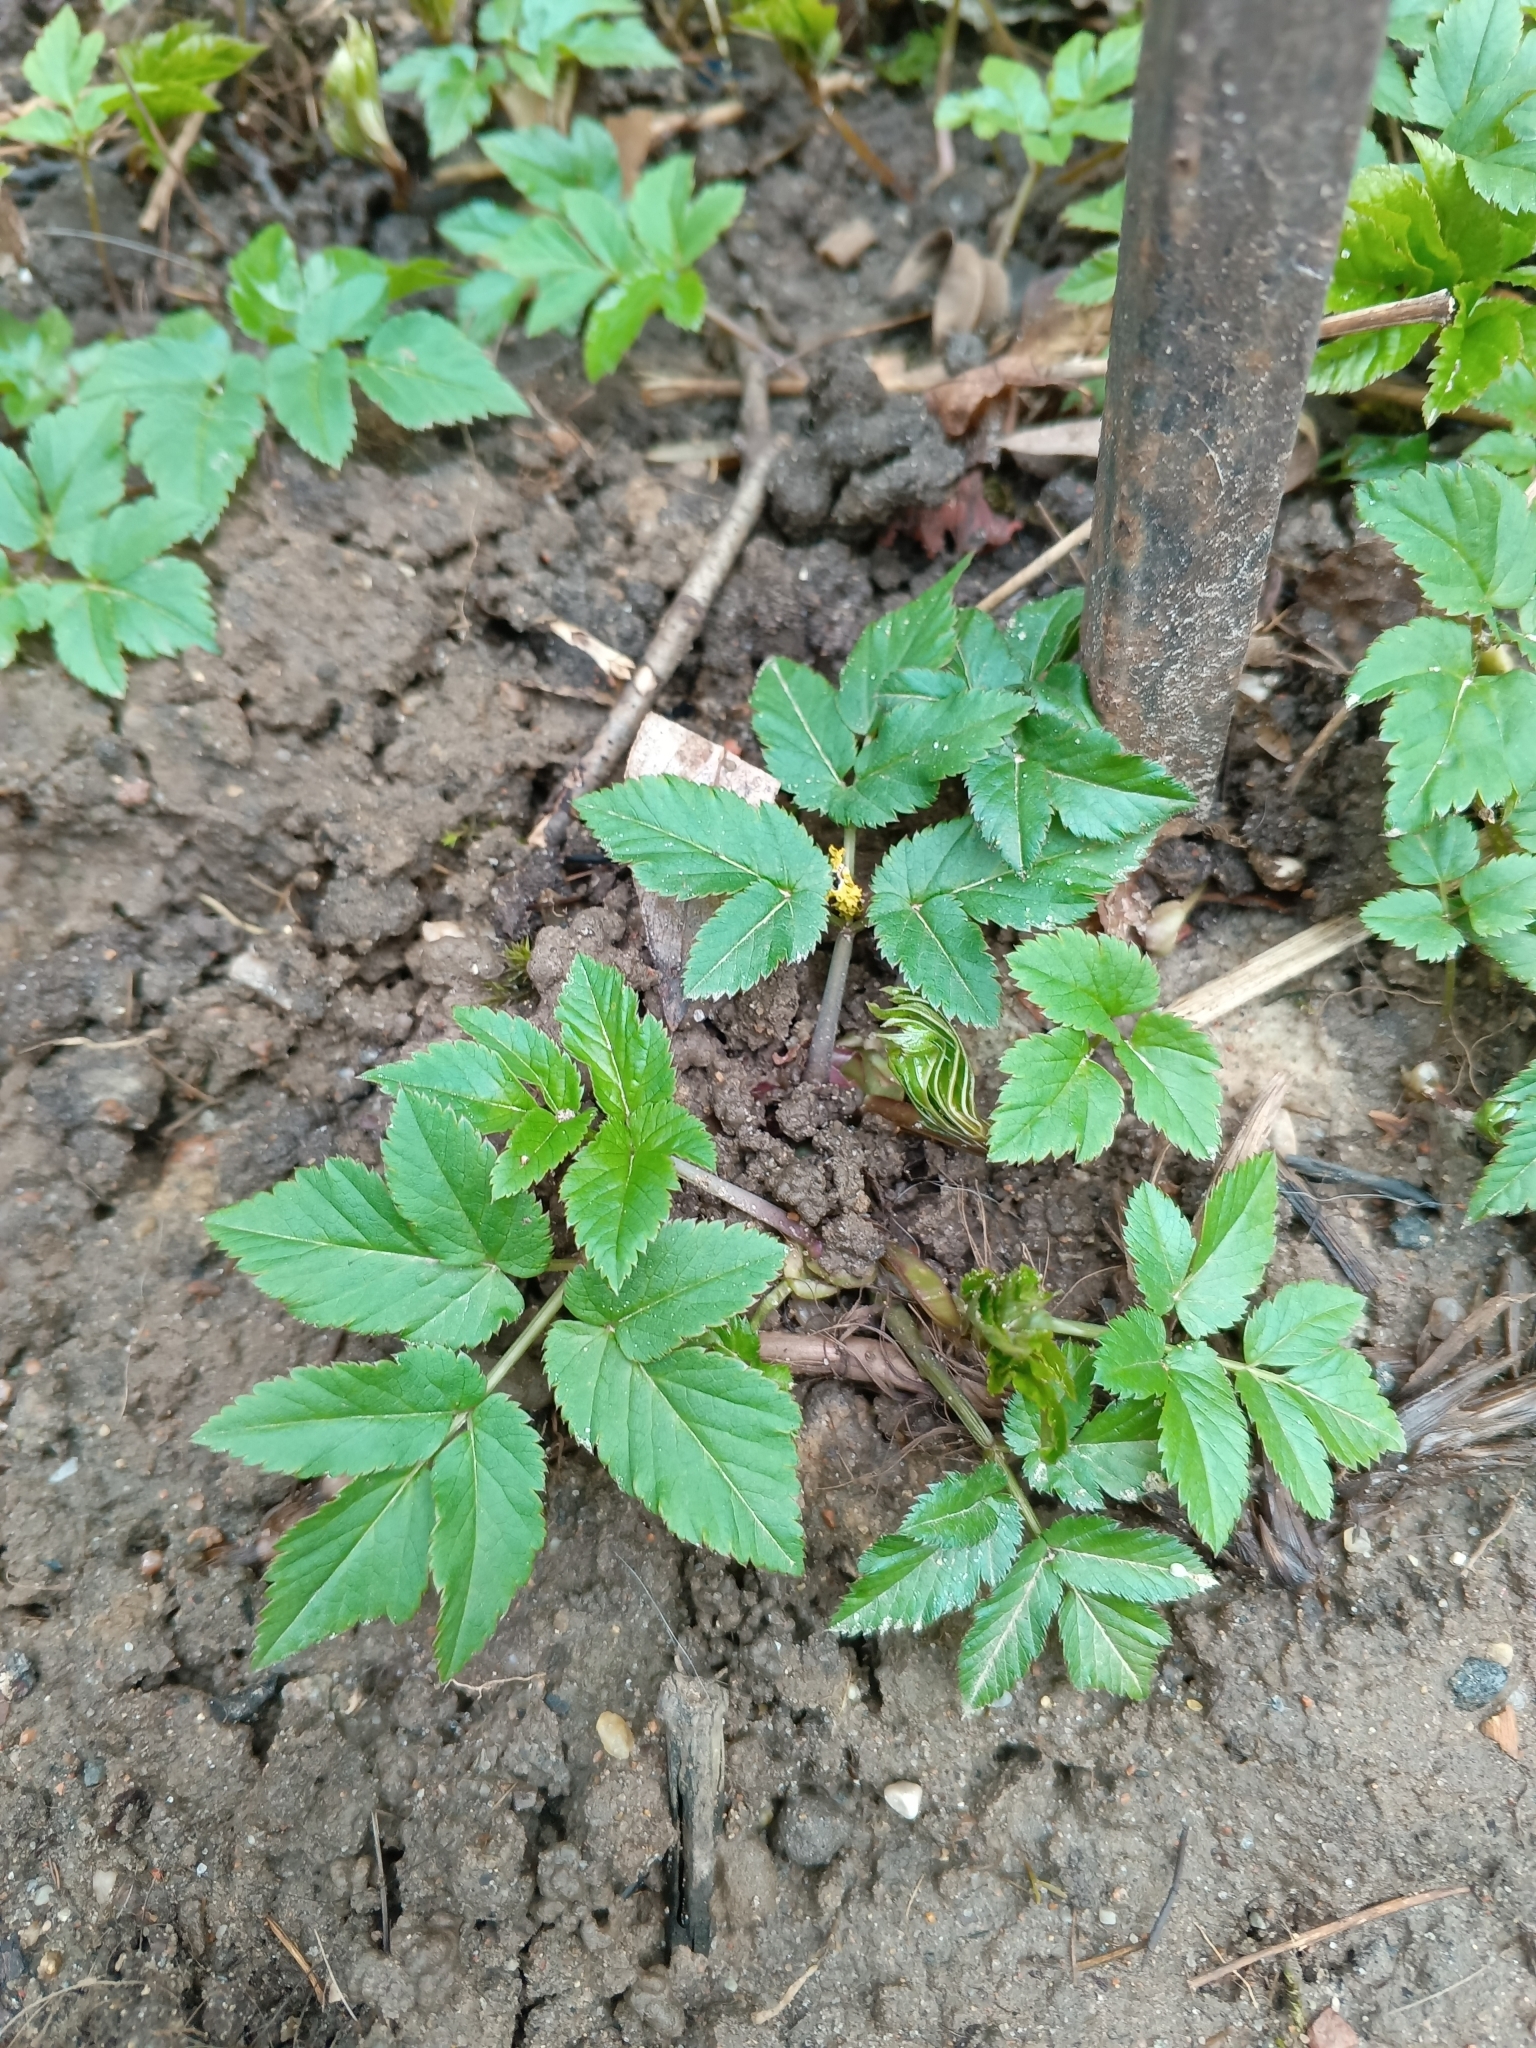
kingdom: Plantae
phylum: Tracheophyta
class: Magnoliopsida
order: Apiales
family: Apiaceae
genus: Aegopodium
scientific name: Aegopodium podagraria
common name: Ground-elder
